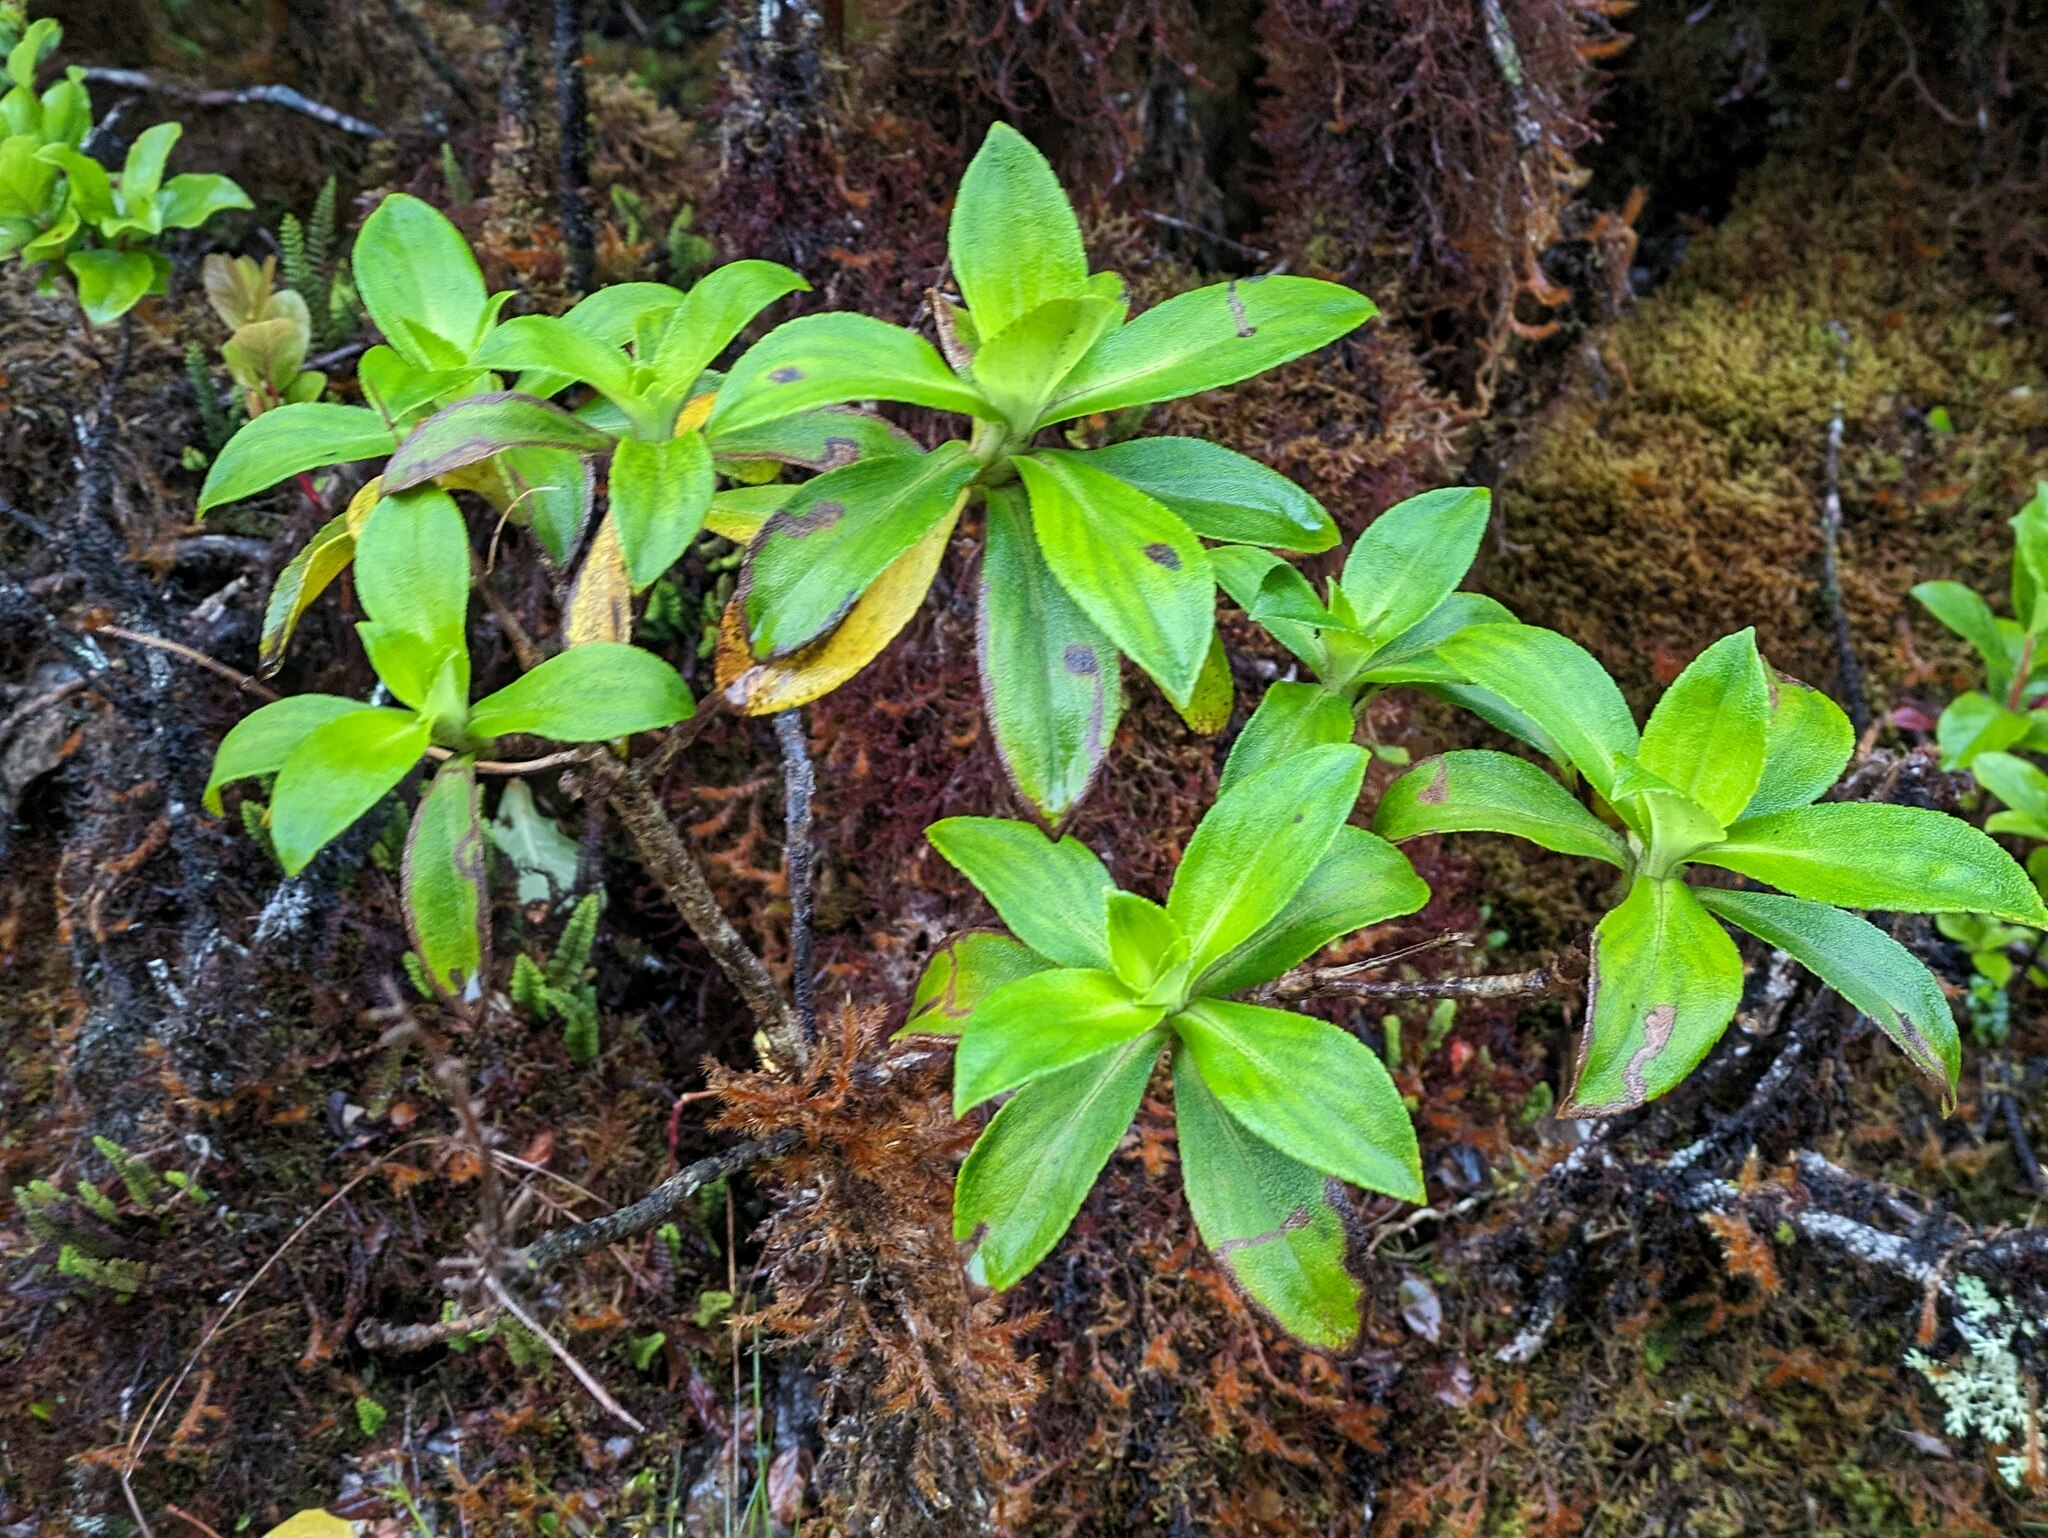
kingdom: Plantae
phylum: Tracheophyta
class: Magnoliopsida
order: Asterales
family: Asteraceae
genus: Dubautia
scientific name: Dubautia laxa
